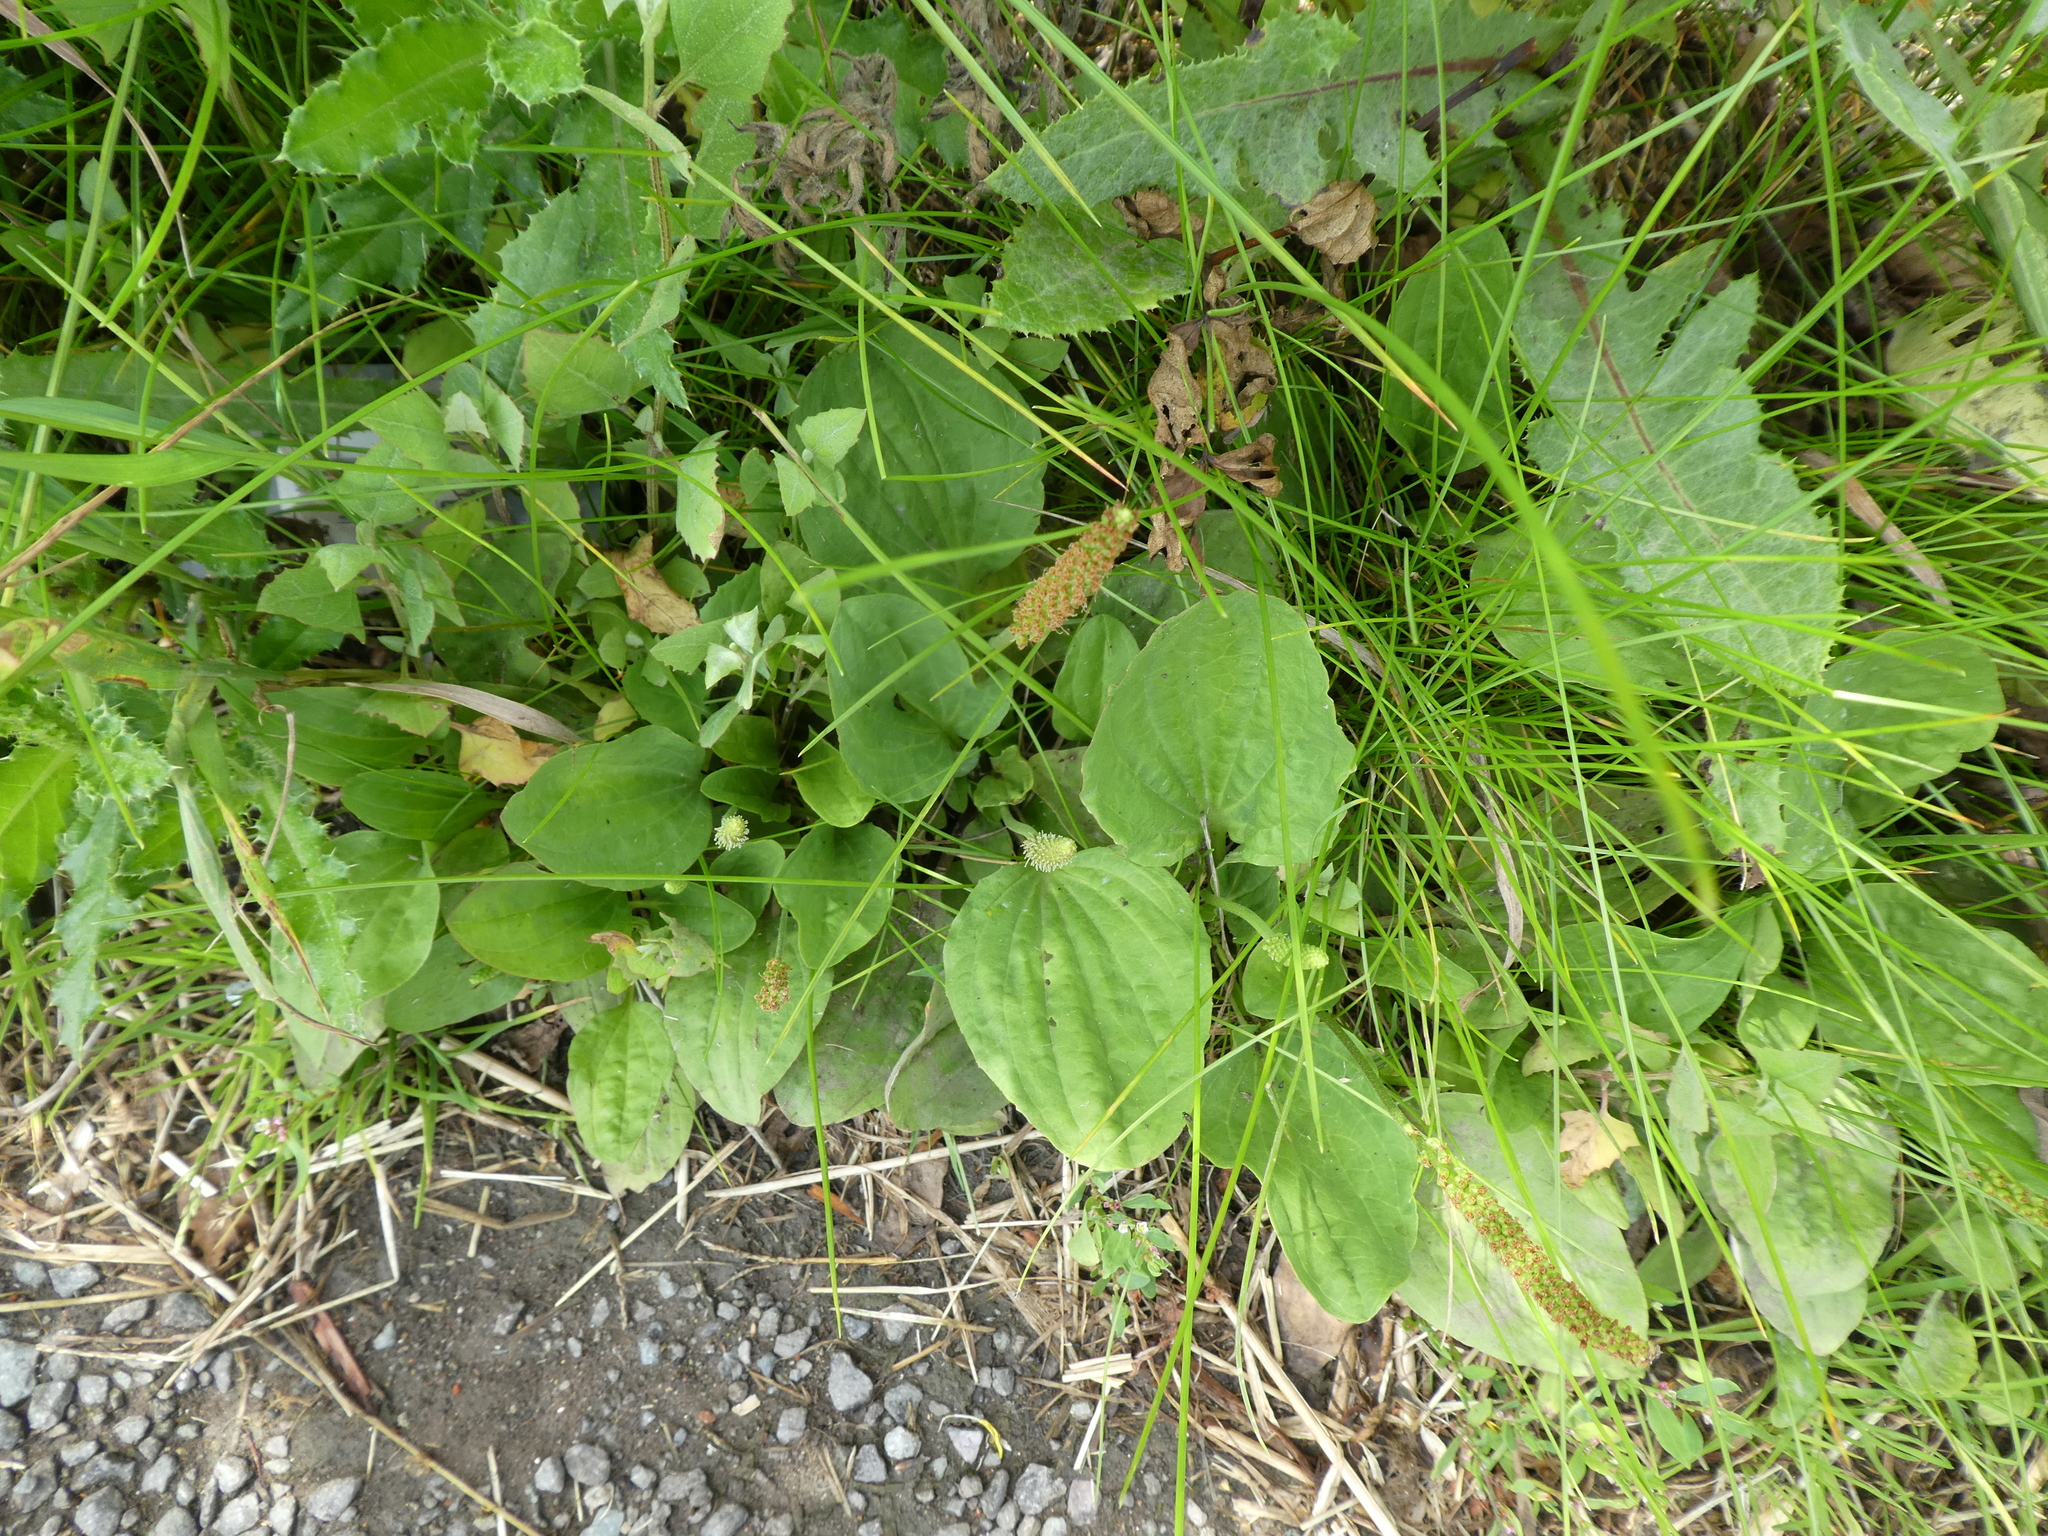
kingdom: Plantae
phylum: Tracheophyta
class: Magnoliopsida
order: Lamiales
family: Plantaginaceae
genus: Plantago
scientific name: Plantago major
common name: Common plantain
